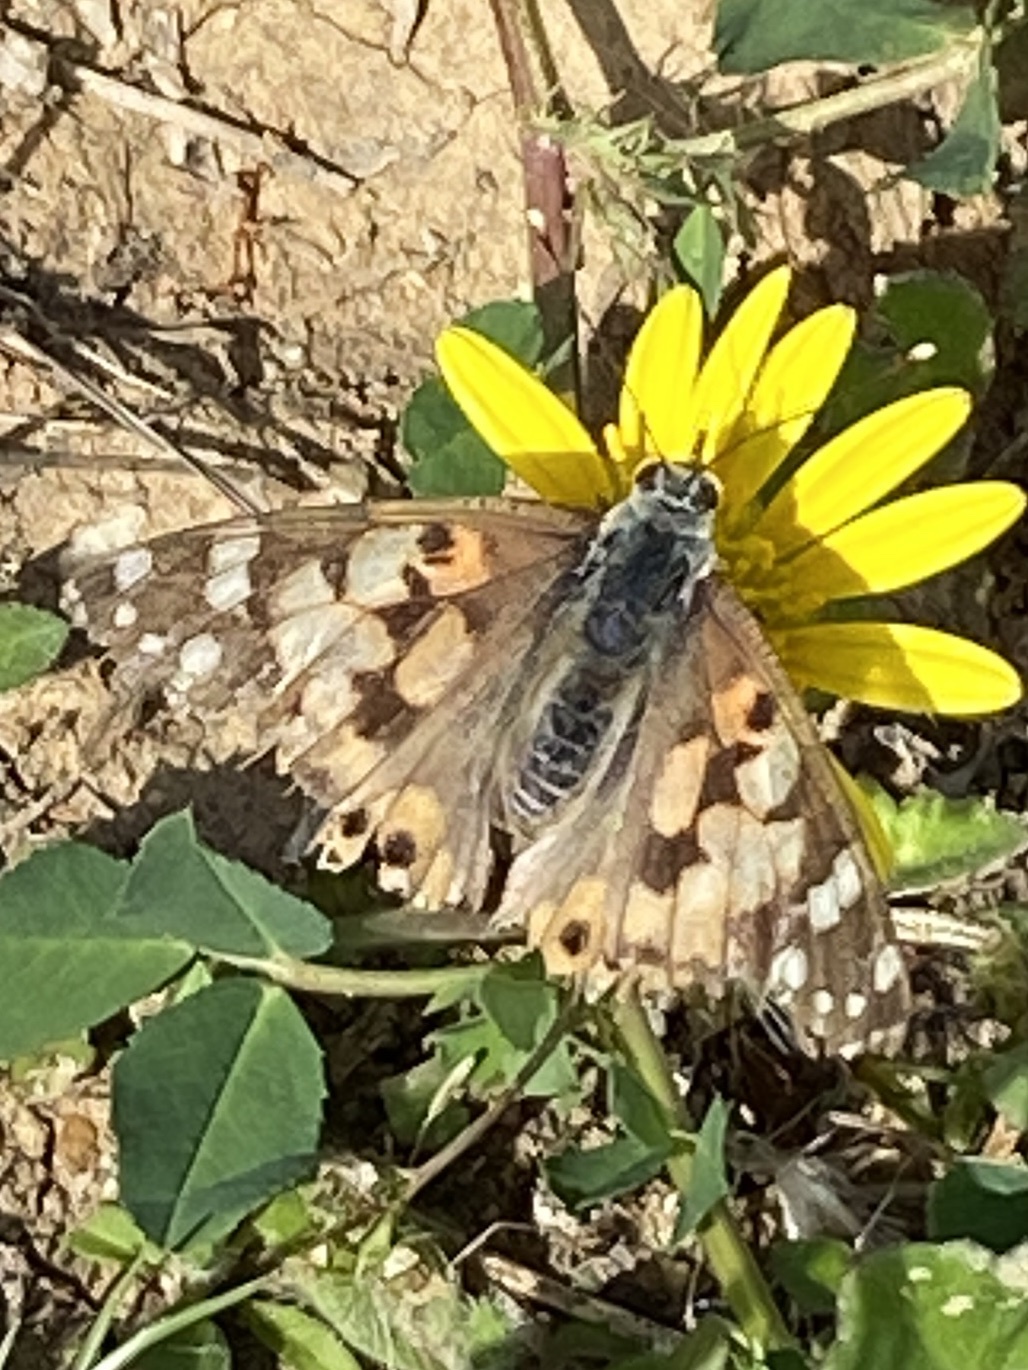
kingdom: Animalia
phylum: Arthropoda
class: Insecta
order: Lepidoptera
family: Nymphalidae
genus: Vanessa
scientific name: Vanessa cardui
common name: Painted lady
